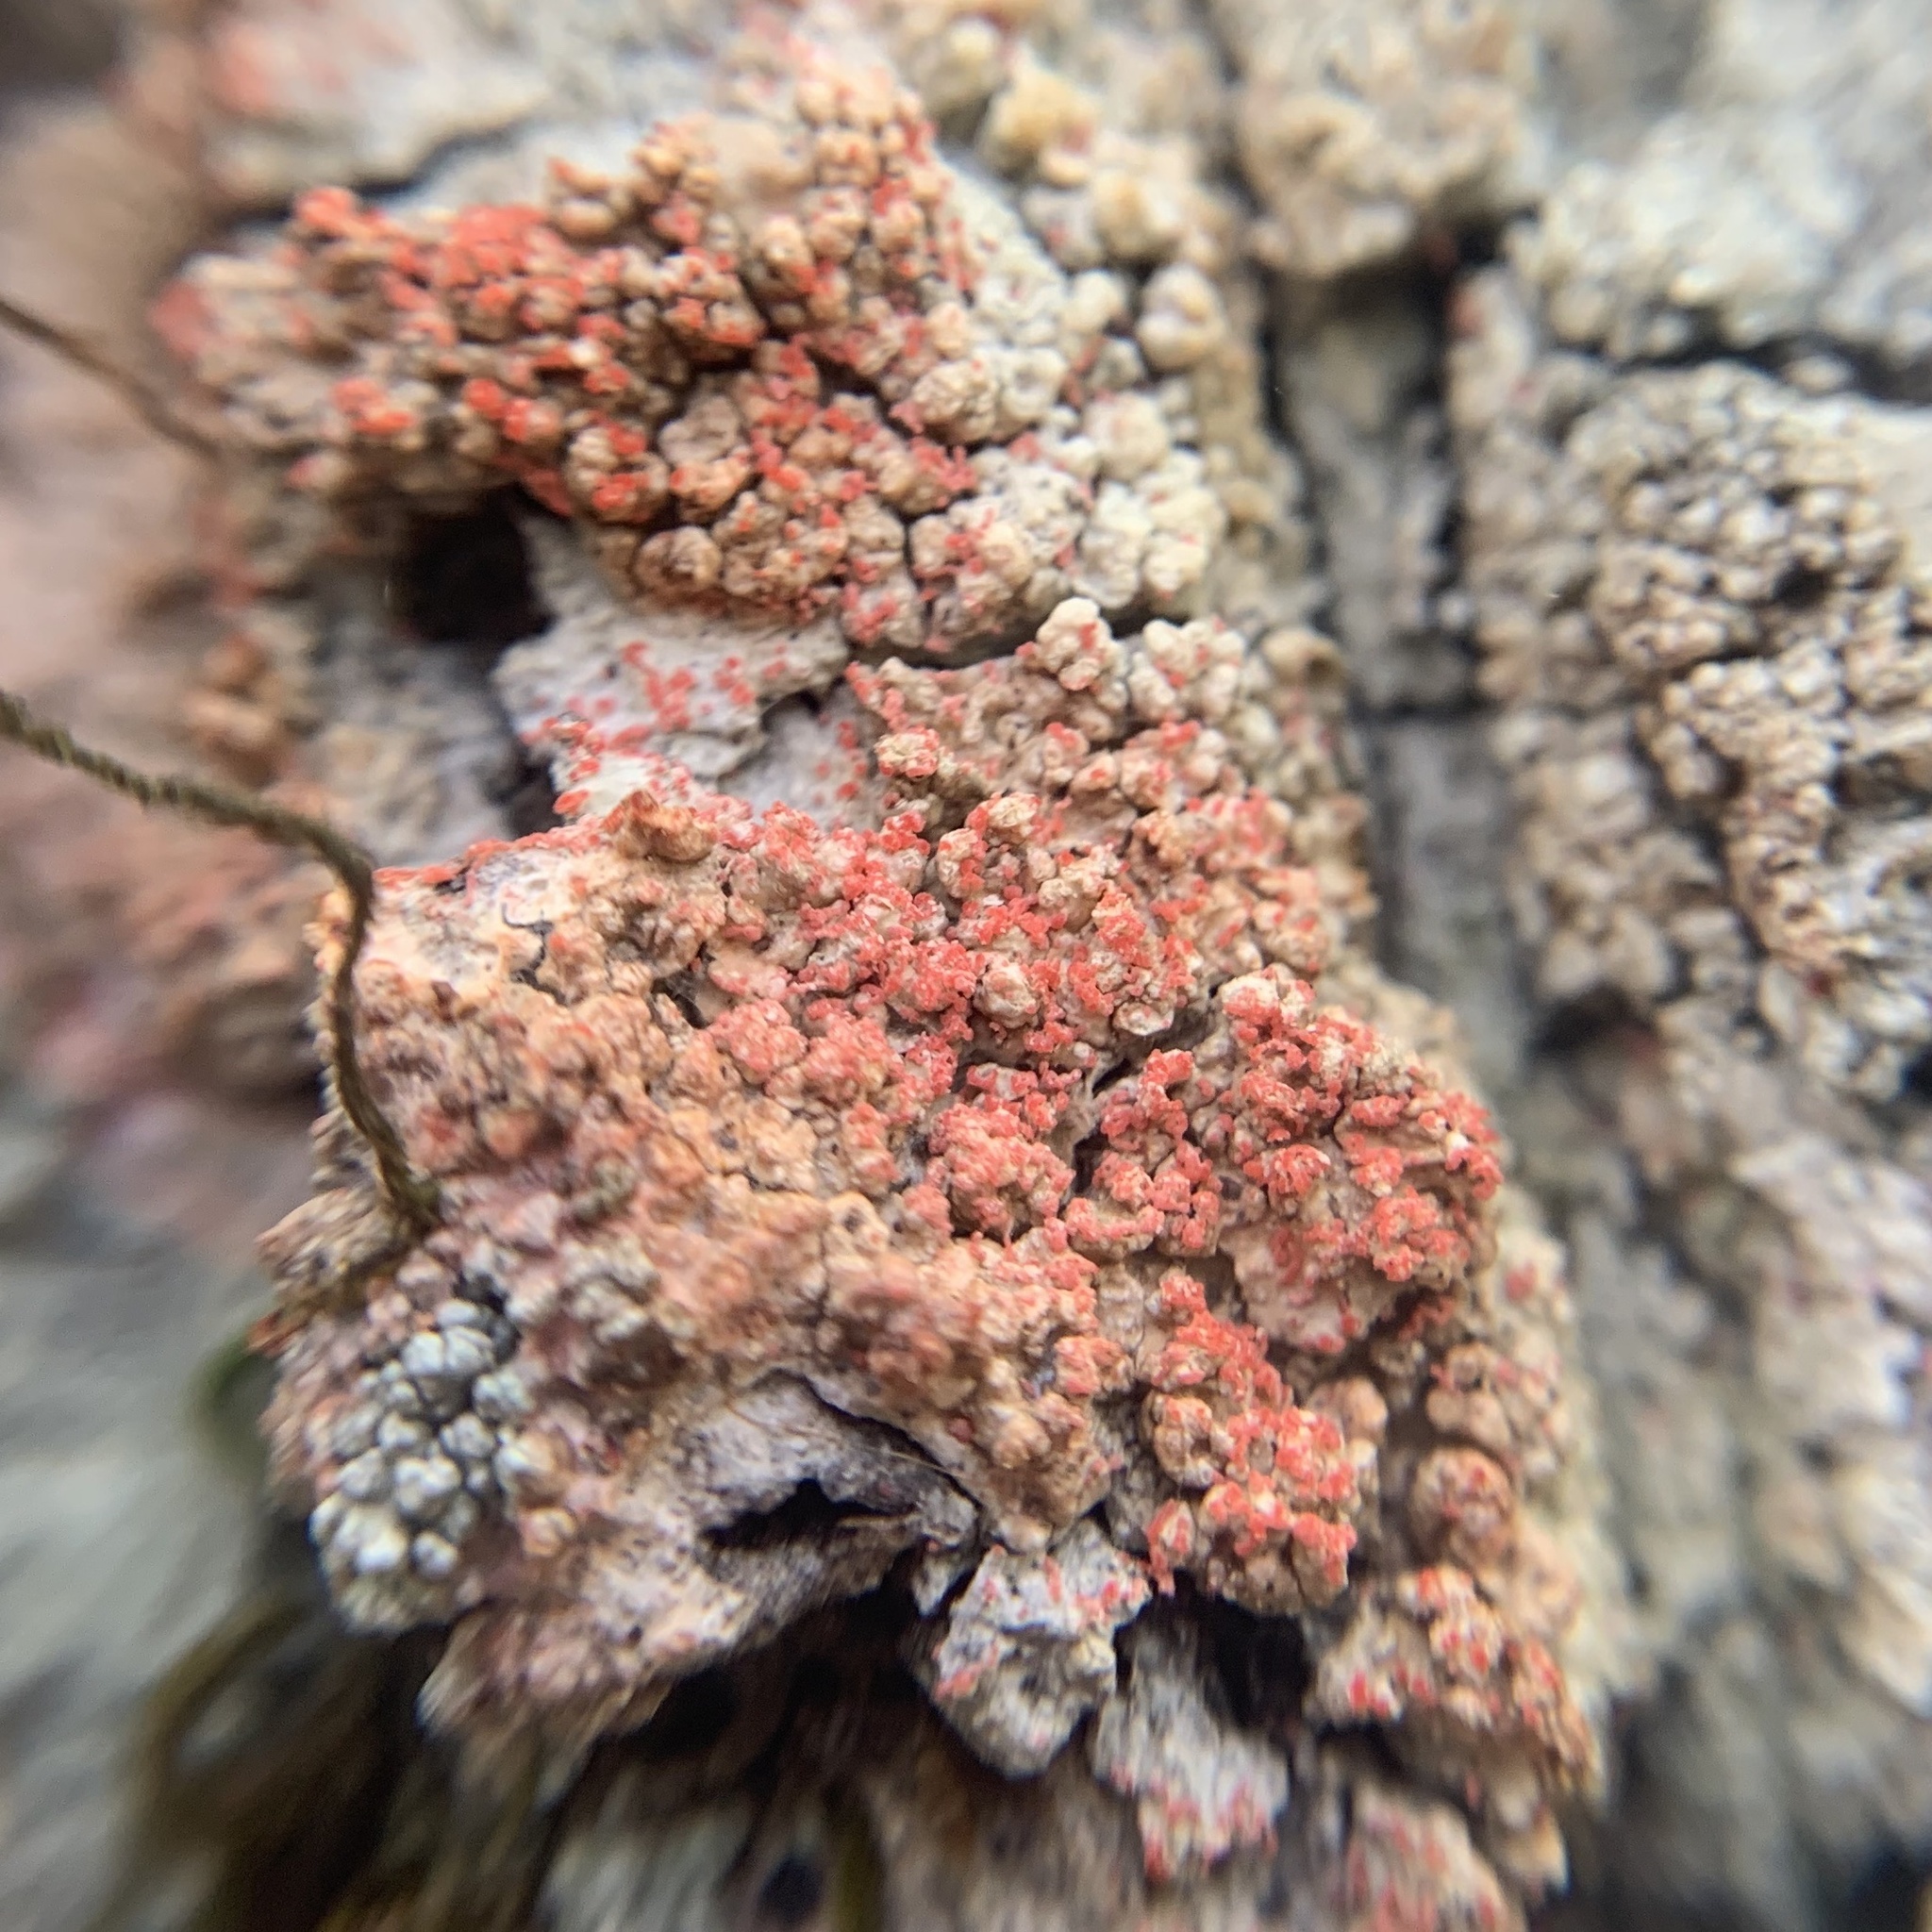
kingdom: Fungi
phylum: Basidiomycota
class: Agaricomycetes
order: Corticiales
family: Corticiaceae
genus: Marchandiomyces
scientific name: Marchandiomyces corallinus
